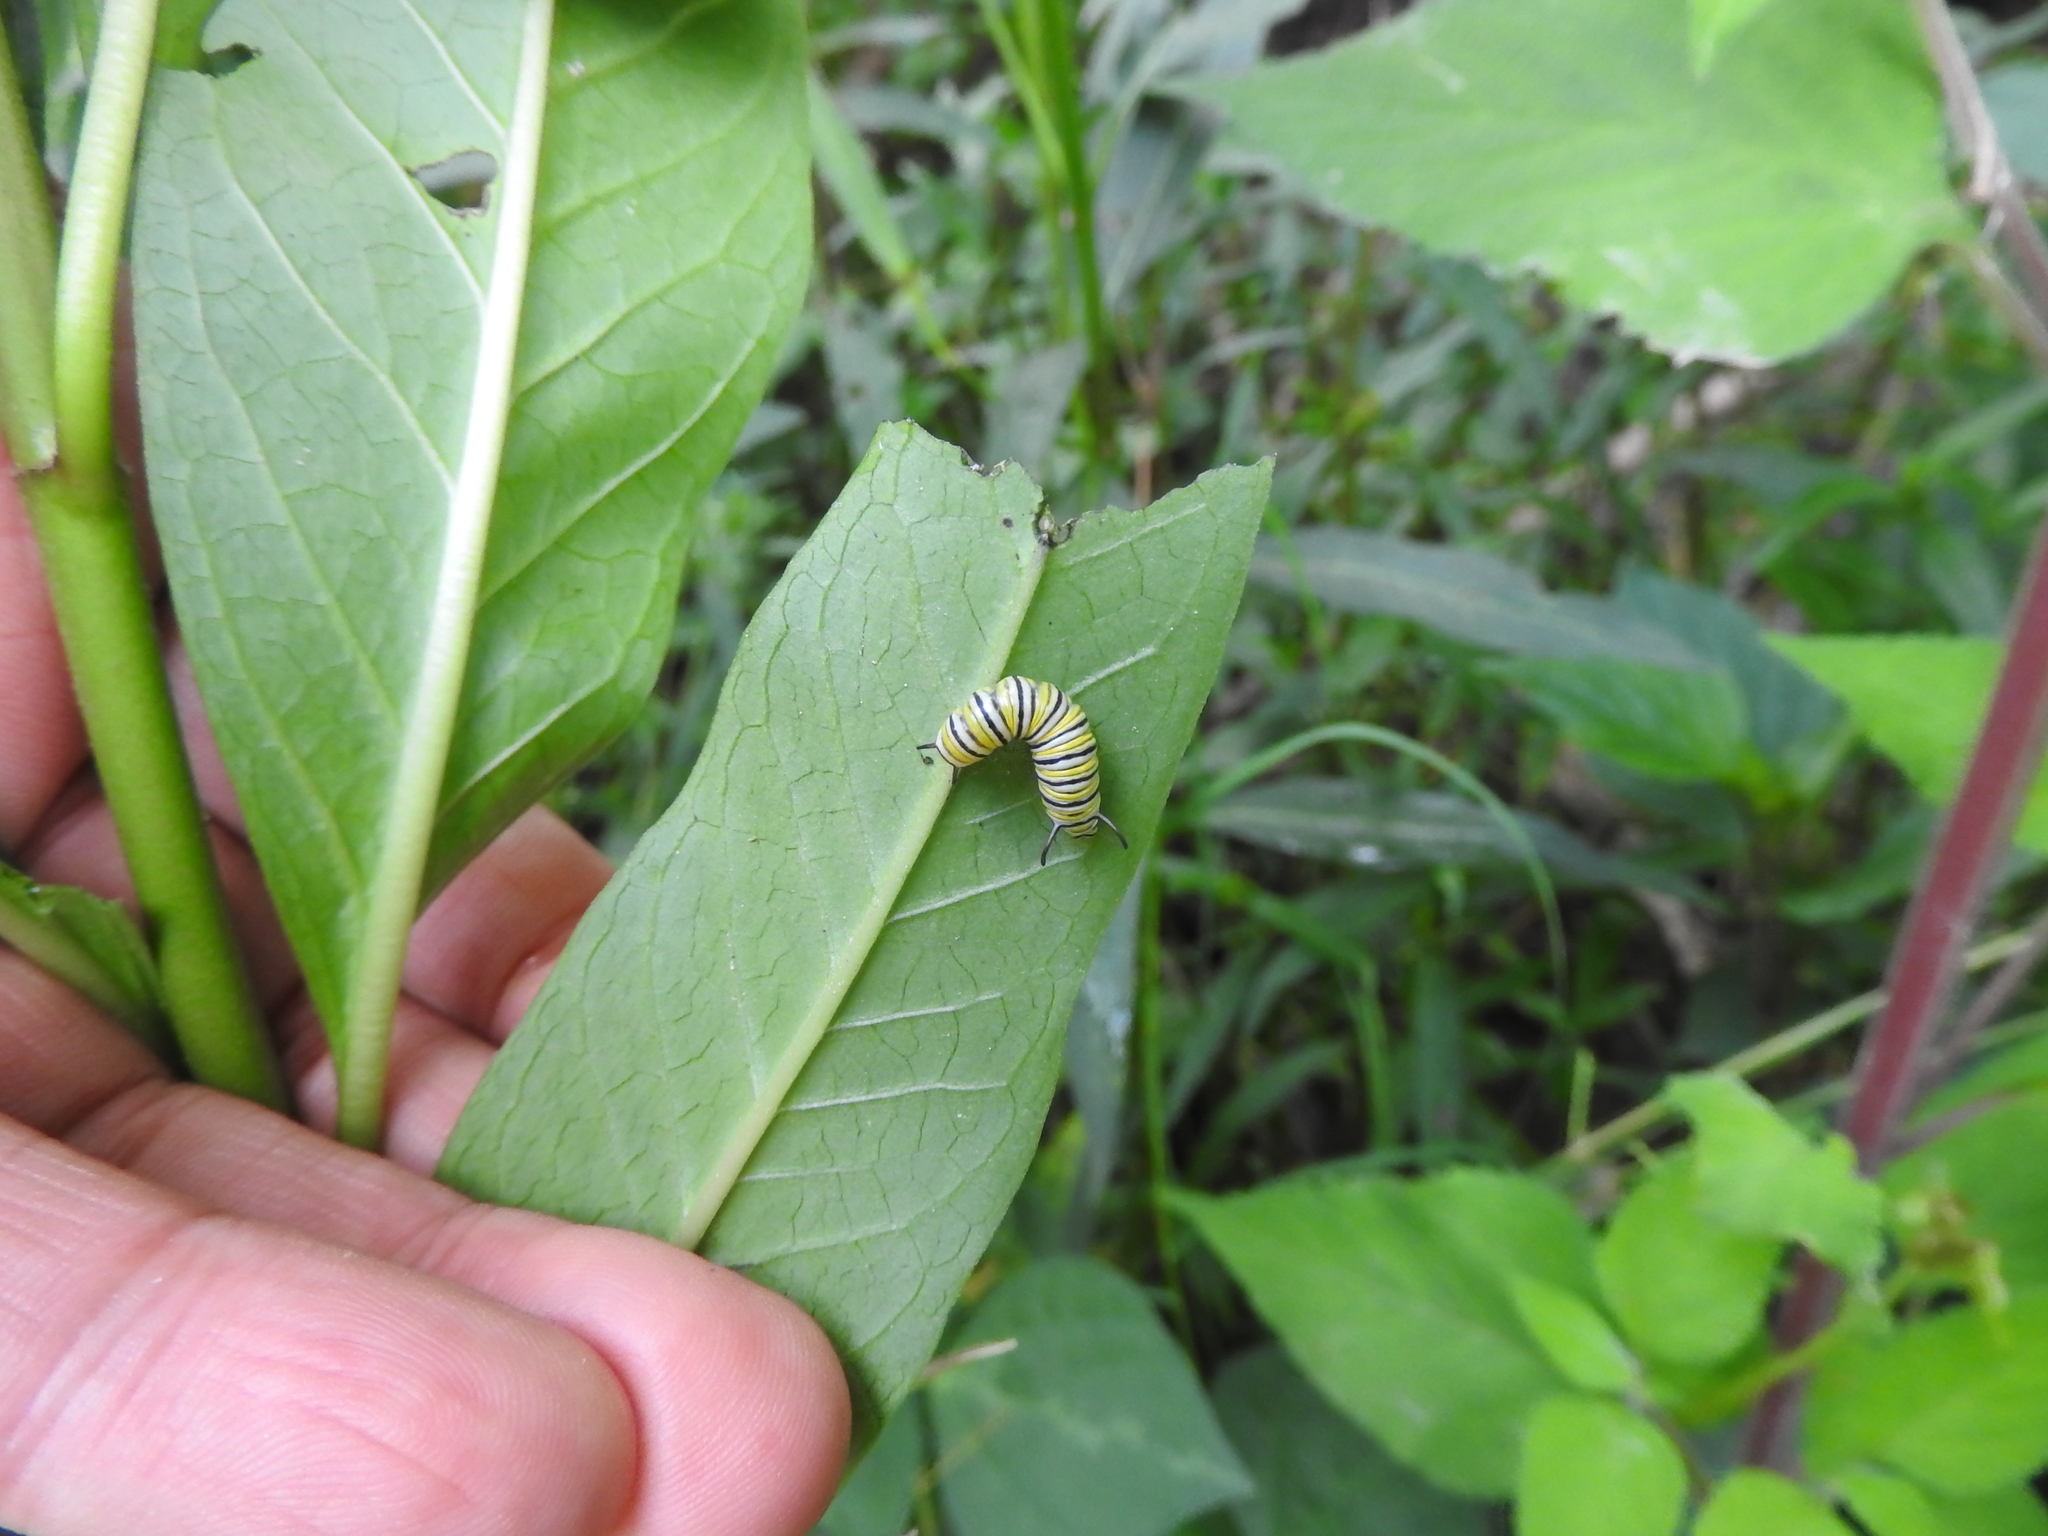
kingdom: Animalia
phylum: Arthropoda
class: Insecta
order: Lepidoptera
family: Nymphalidae
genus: Danaus
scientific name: Danaus plexippus
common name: Monarch
